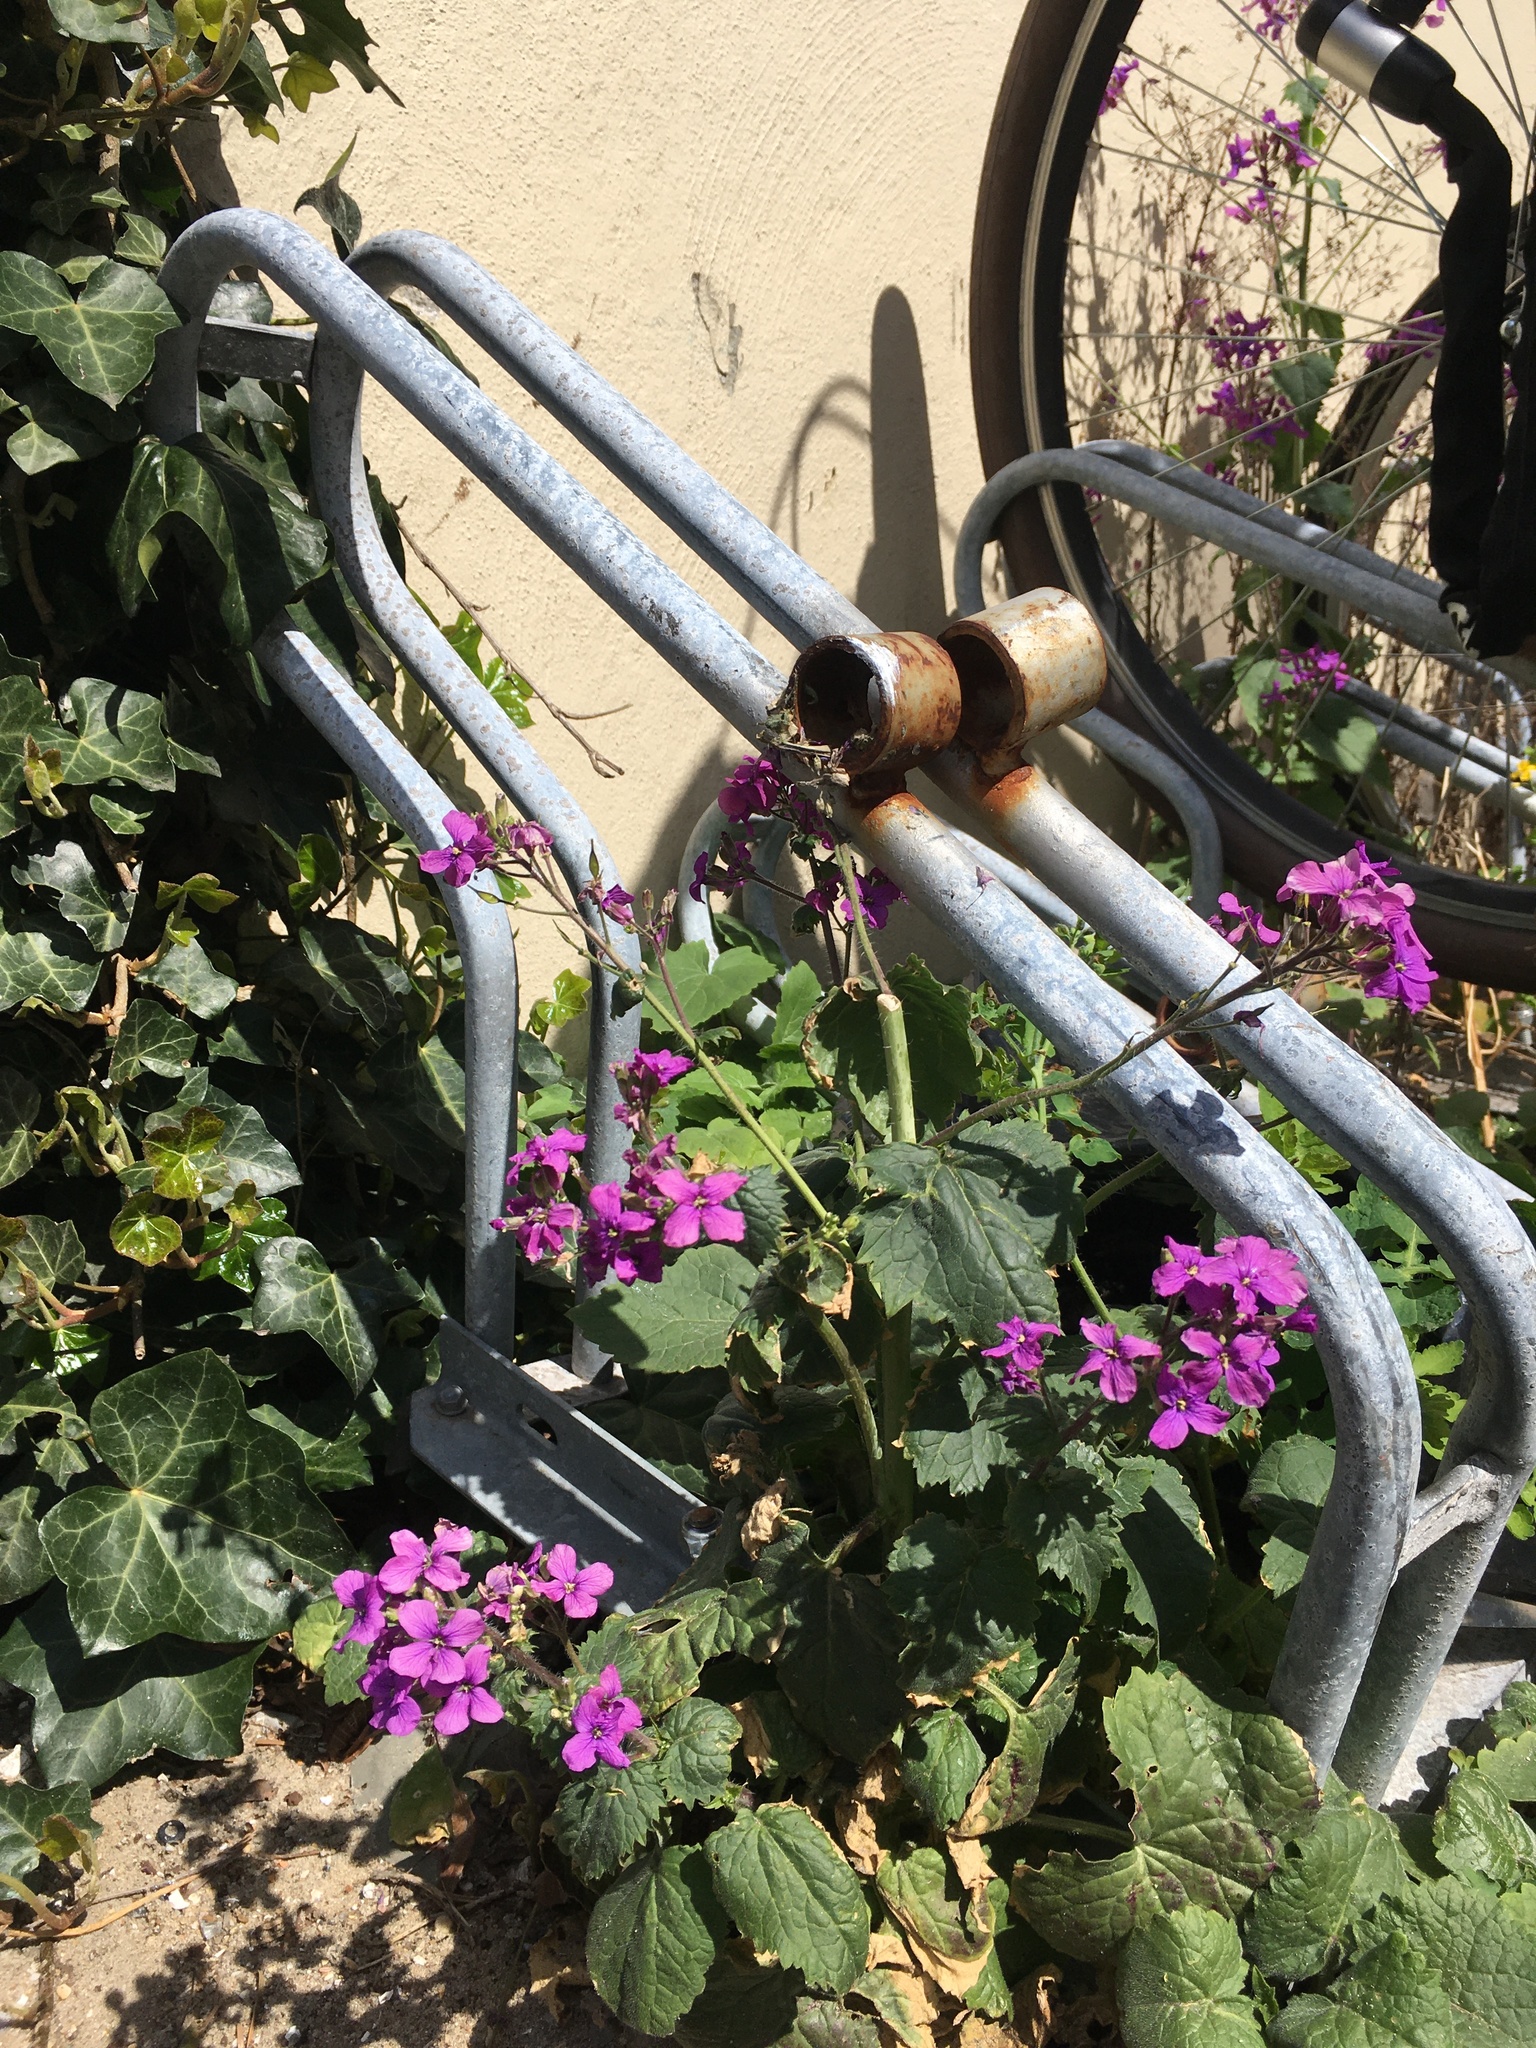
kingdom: Plantae
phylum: Tracheophyta
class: Magnoliopsida
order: Brassicales
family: Brassicaceae
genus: Lunaria
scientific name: Lunaria annua
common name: Honesty
